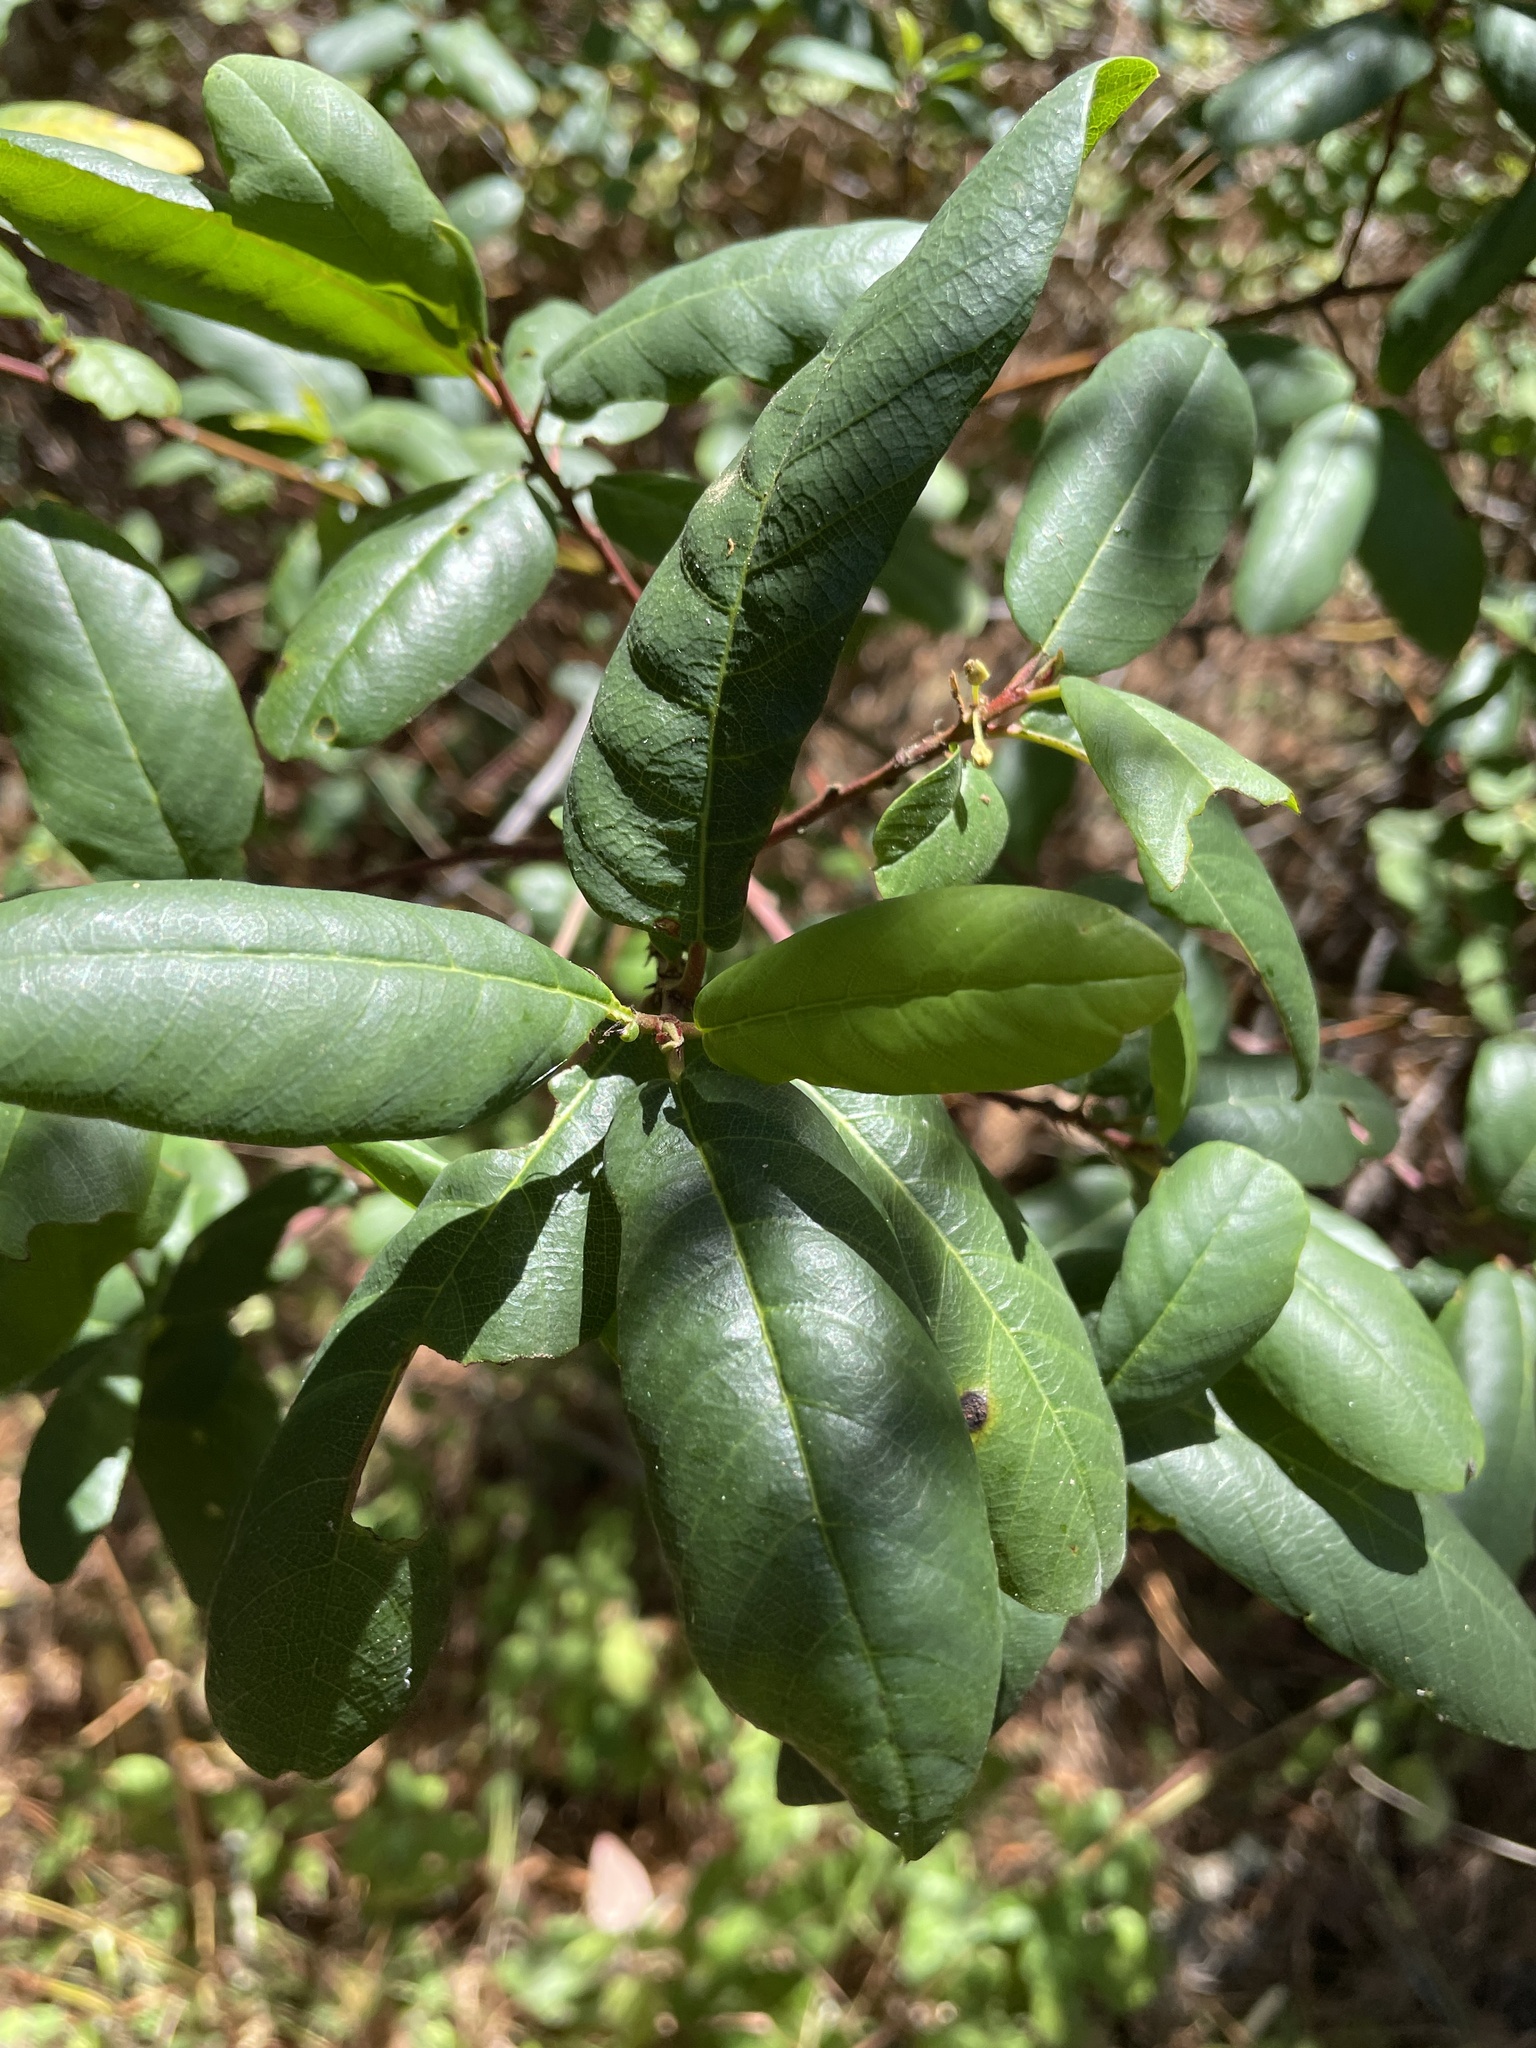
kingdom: Plantae
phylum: Tracheophyta
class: Magnoliopsida
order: Rosales
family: Rhamnaceae
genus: Frangula
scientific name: Frangula californica
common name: California buckthorn
